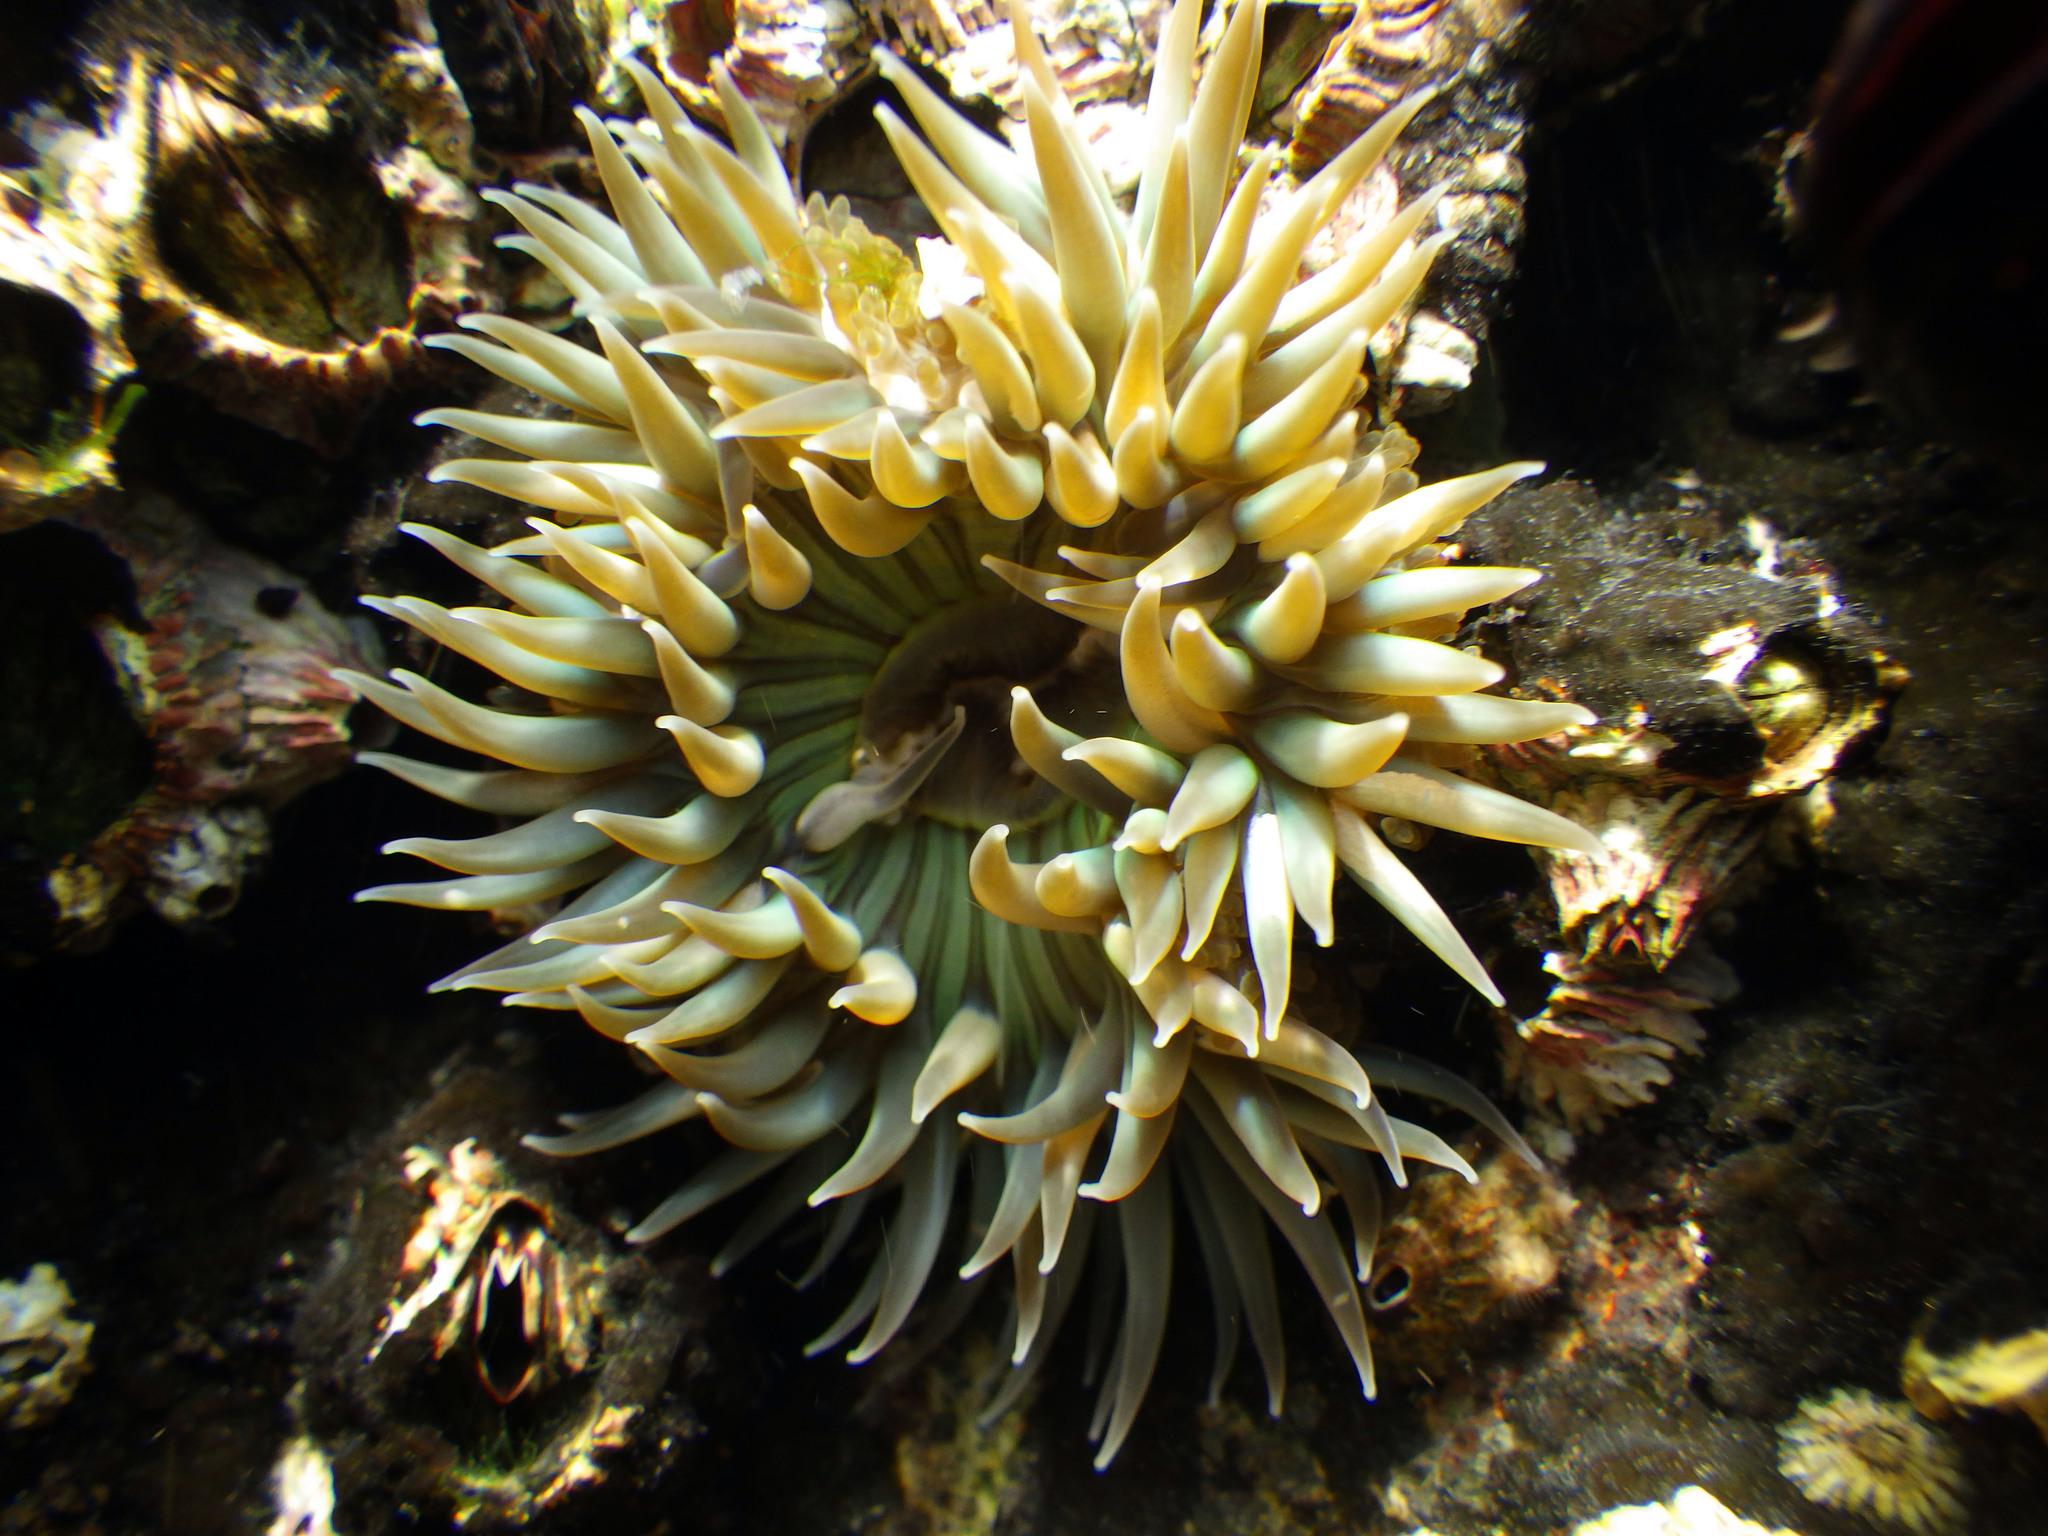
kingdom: Animalia
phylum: Cnidaria
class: Anthozoa
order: Actiniaria
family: Actiniidae
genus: Anthopleura
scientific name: Anthopleura sola
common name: Sun anemone
